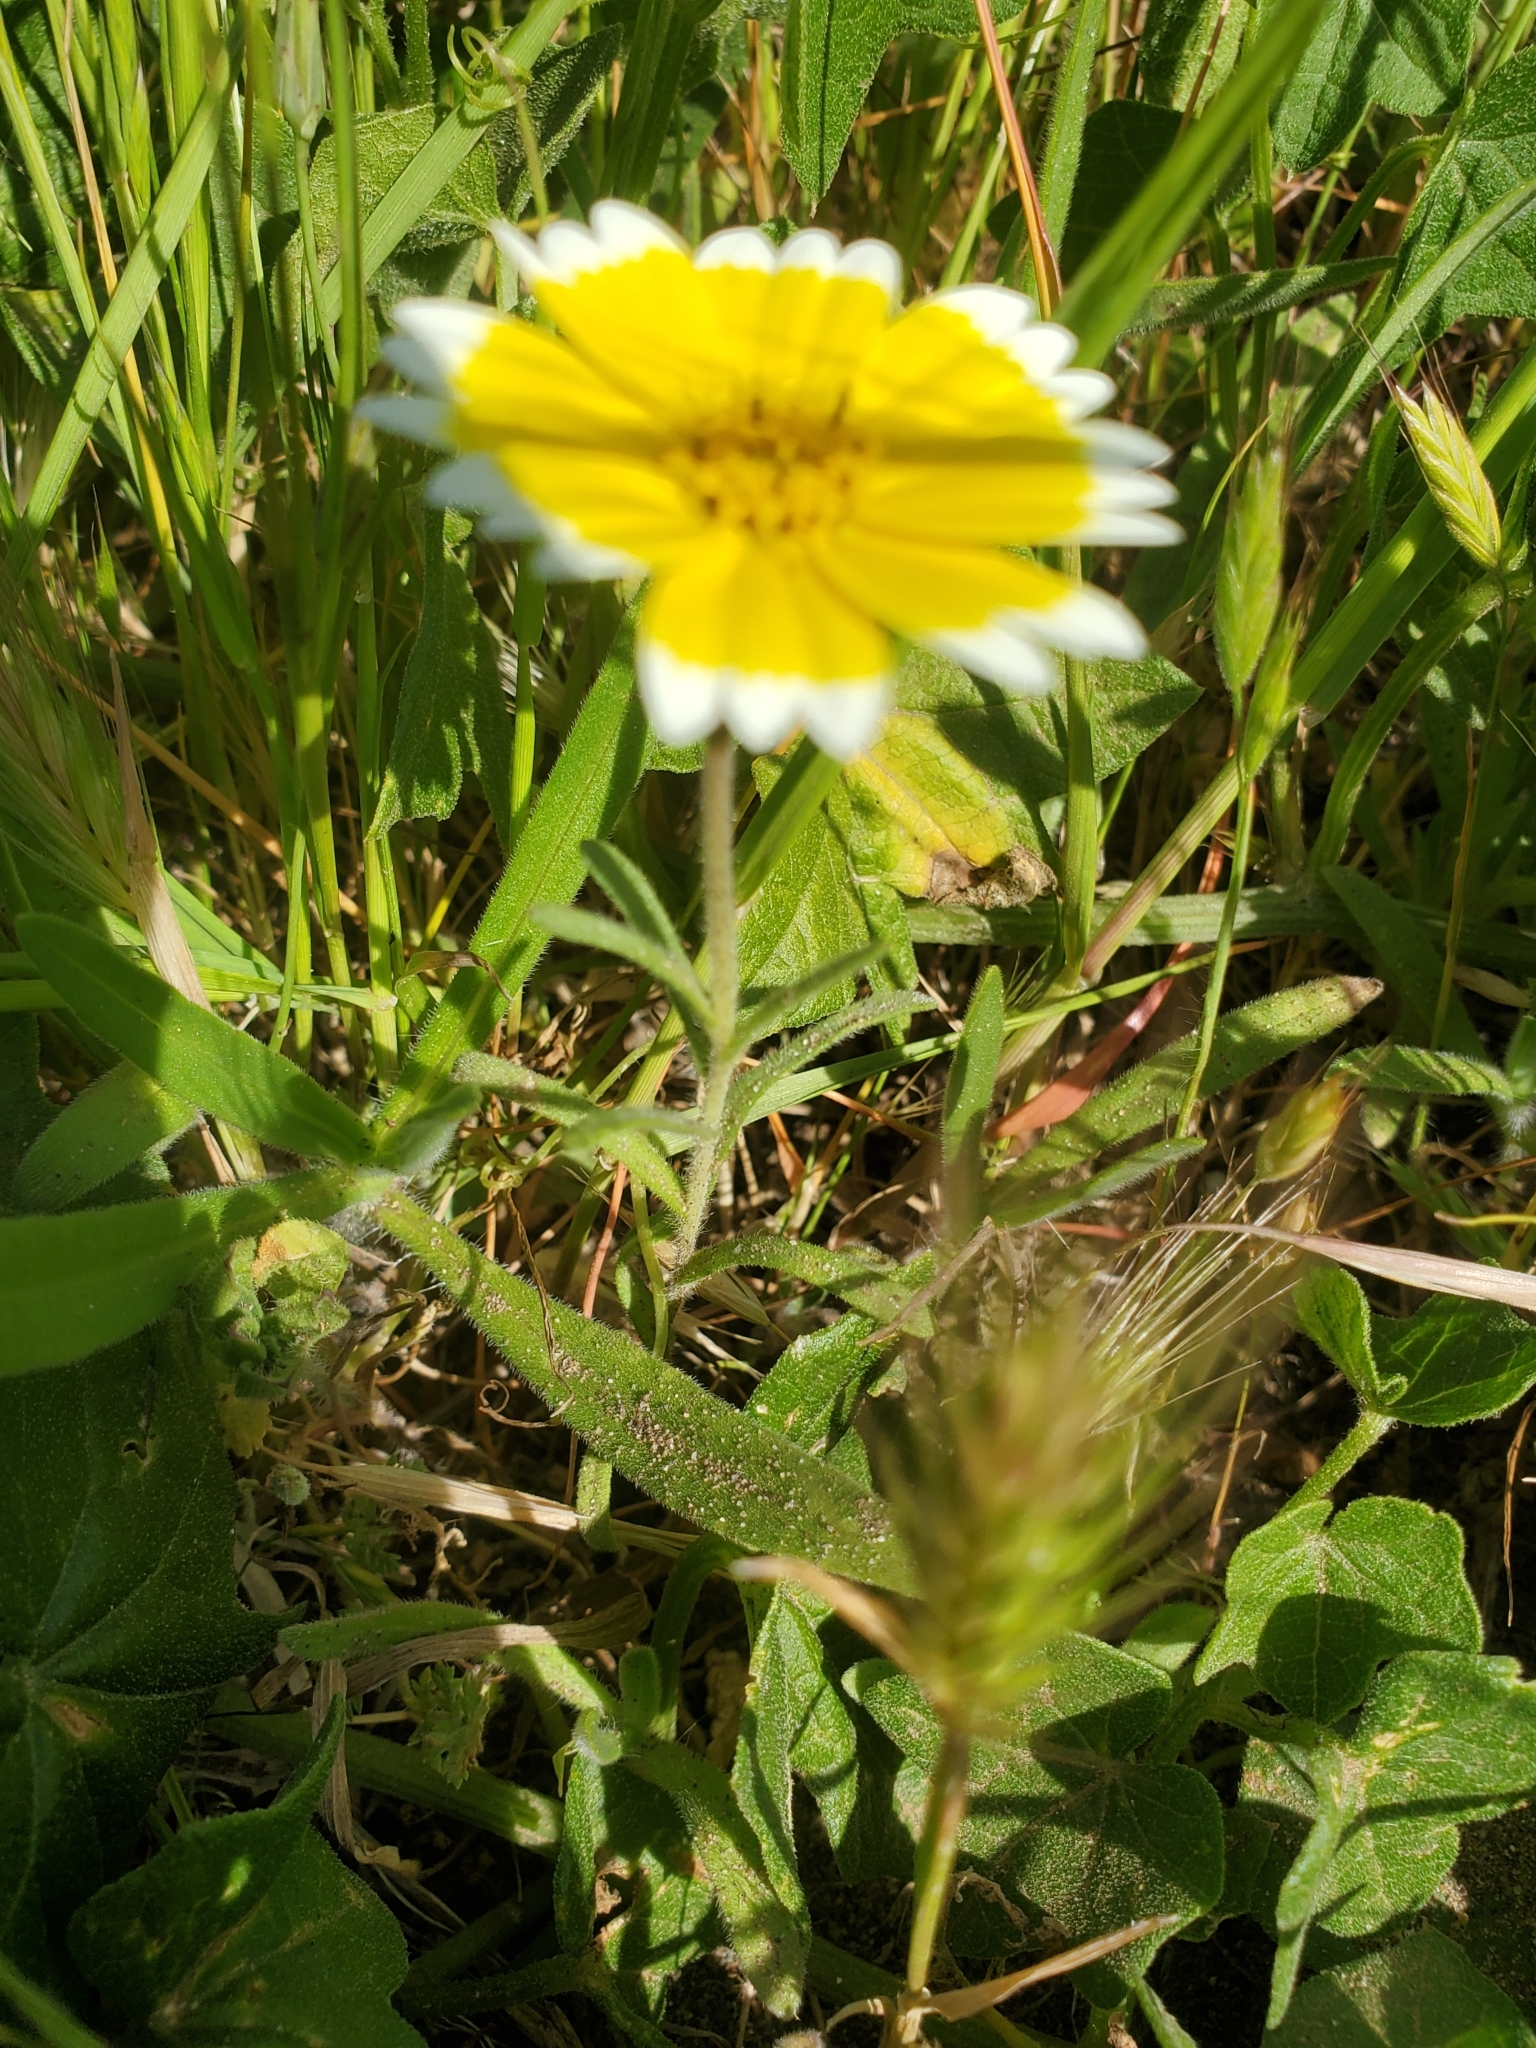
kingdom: Plantae
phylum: Tracheophyta
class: Magnoliopsida
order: Asterales
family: Asteraceae
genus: Layia
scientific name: Layia platyglossa
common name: Tidy-tips
